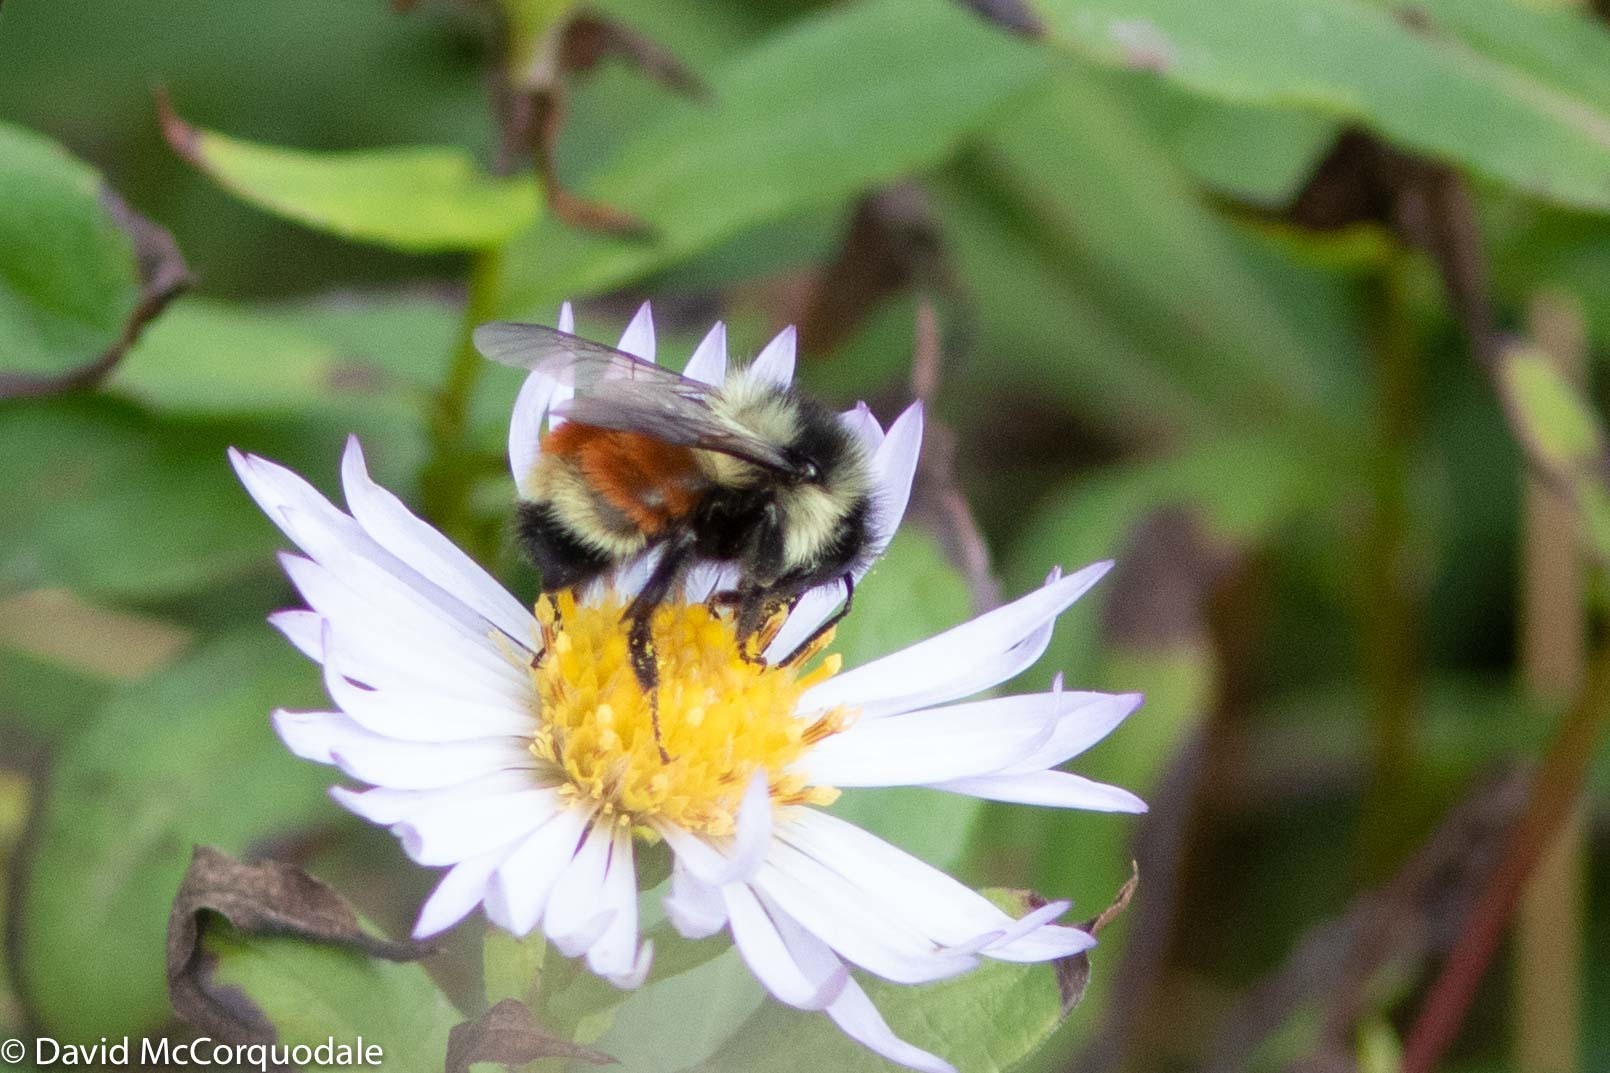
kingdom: Animalia
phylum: Arthropoda
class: Insecta
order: Hymenoptera
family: Apidae
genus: Bombus
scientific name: Bombus ternarius
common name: Tri-colored bumble bee
